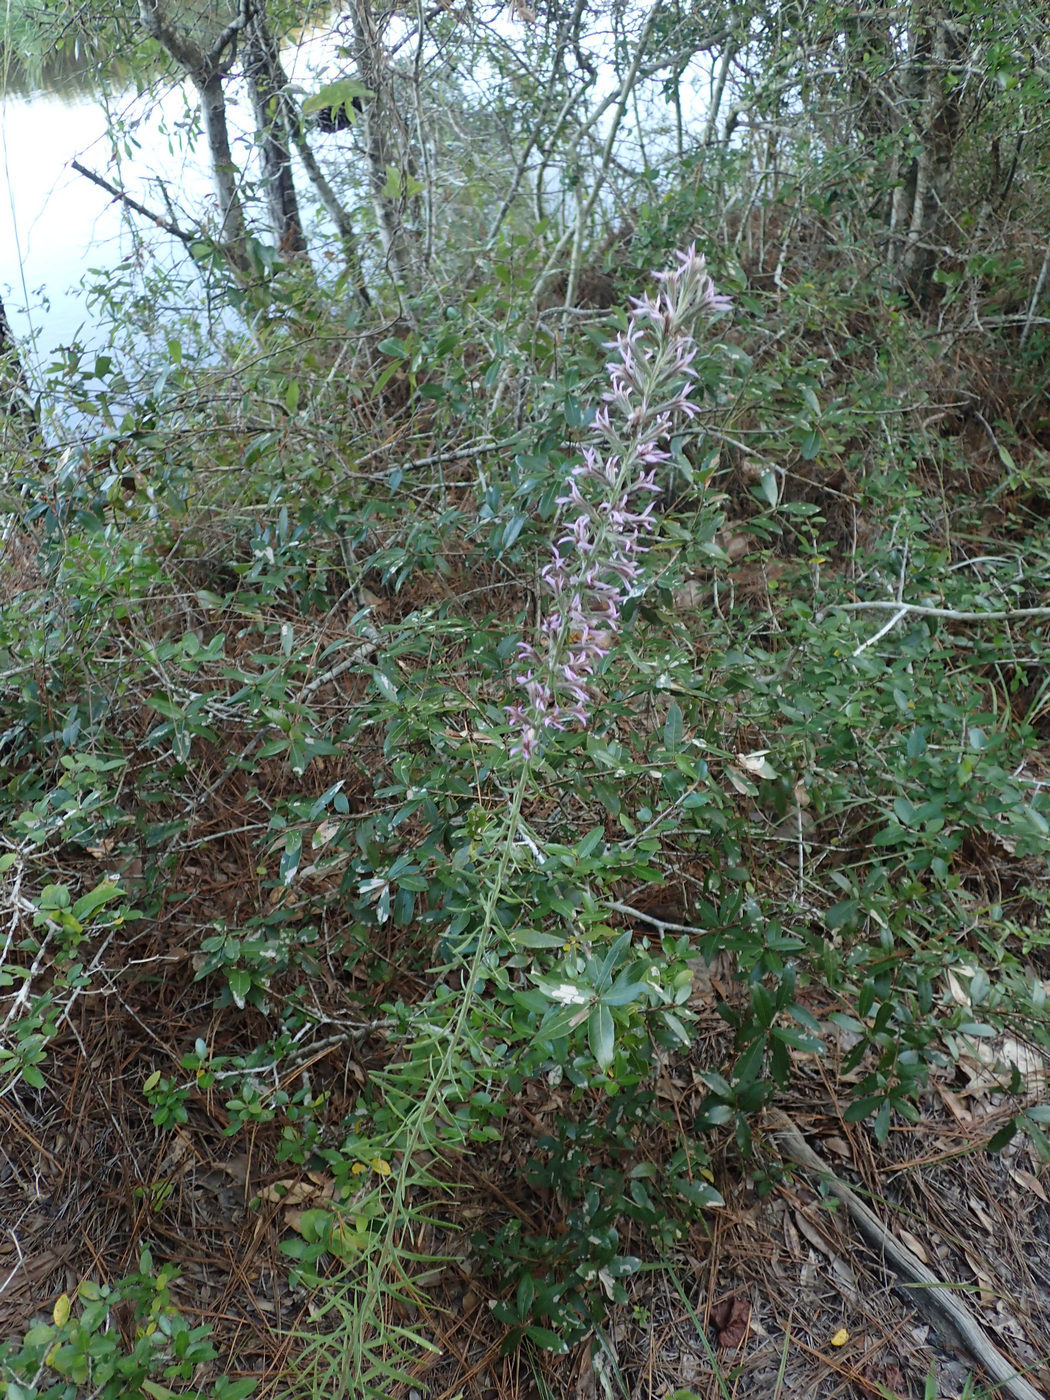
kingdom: Plantae
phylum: Tracheophyta
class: Magnoliopsida
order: Asterales
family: Asteraceae
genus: Liatris
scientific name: Liatris elegans
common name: Pinkscale gayfeather
